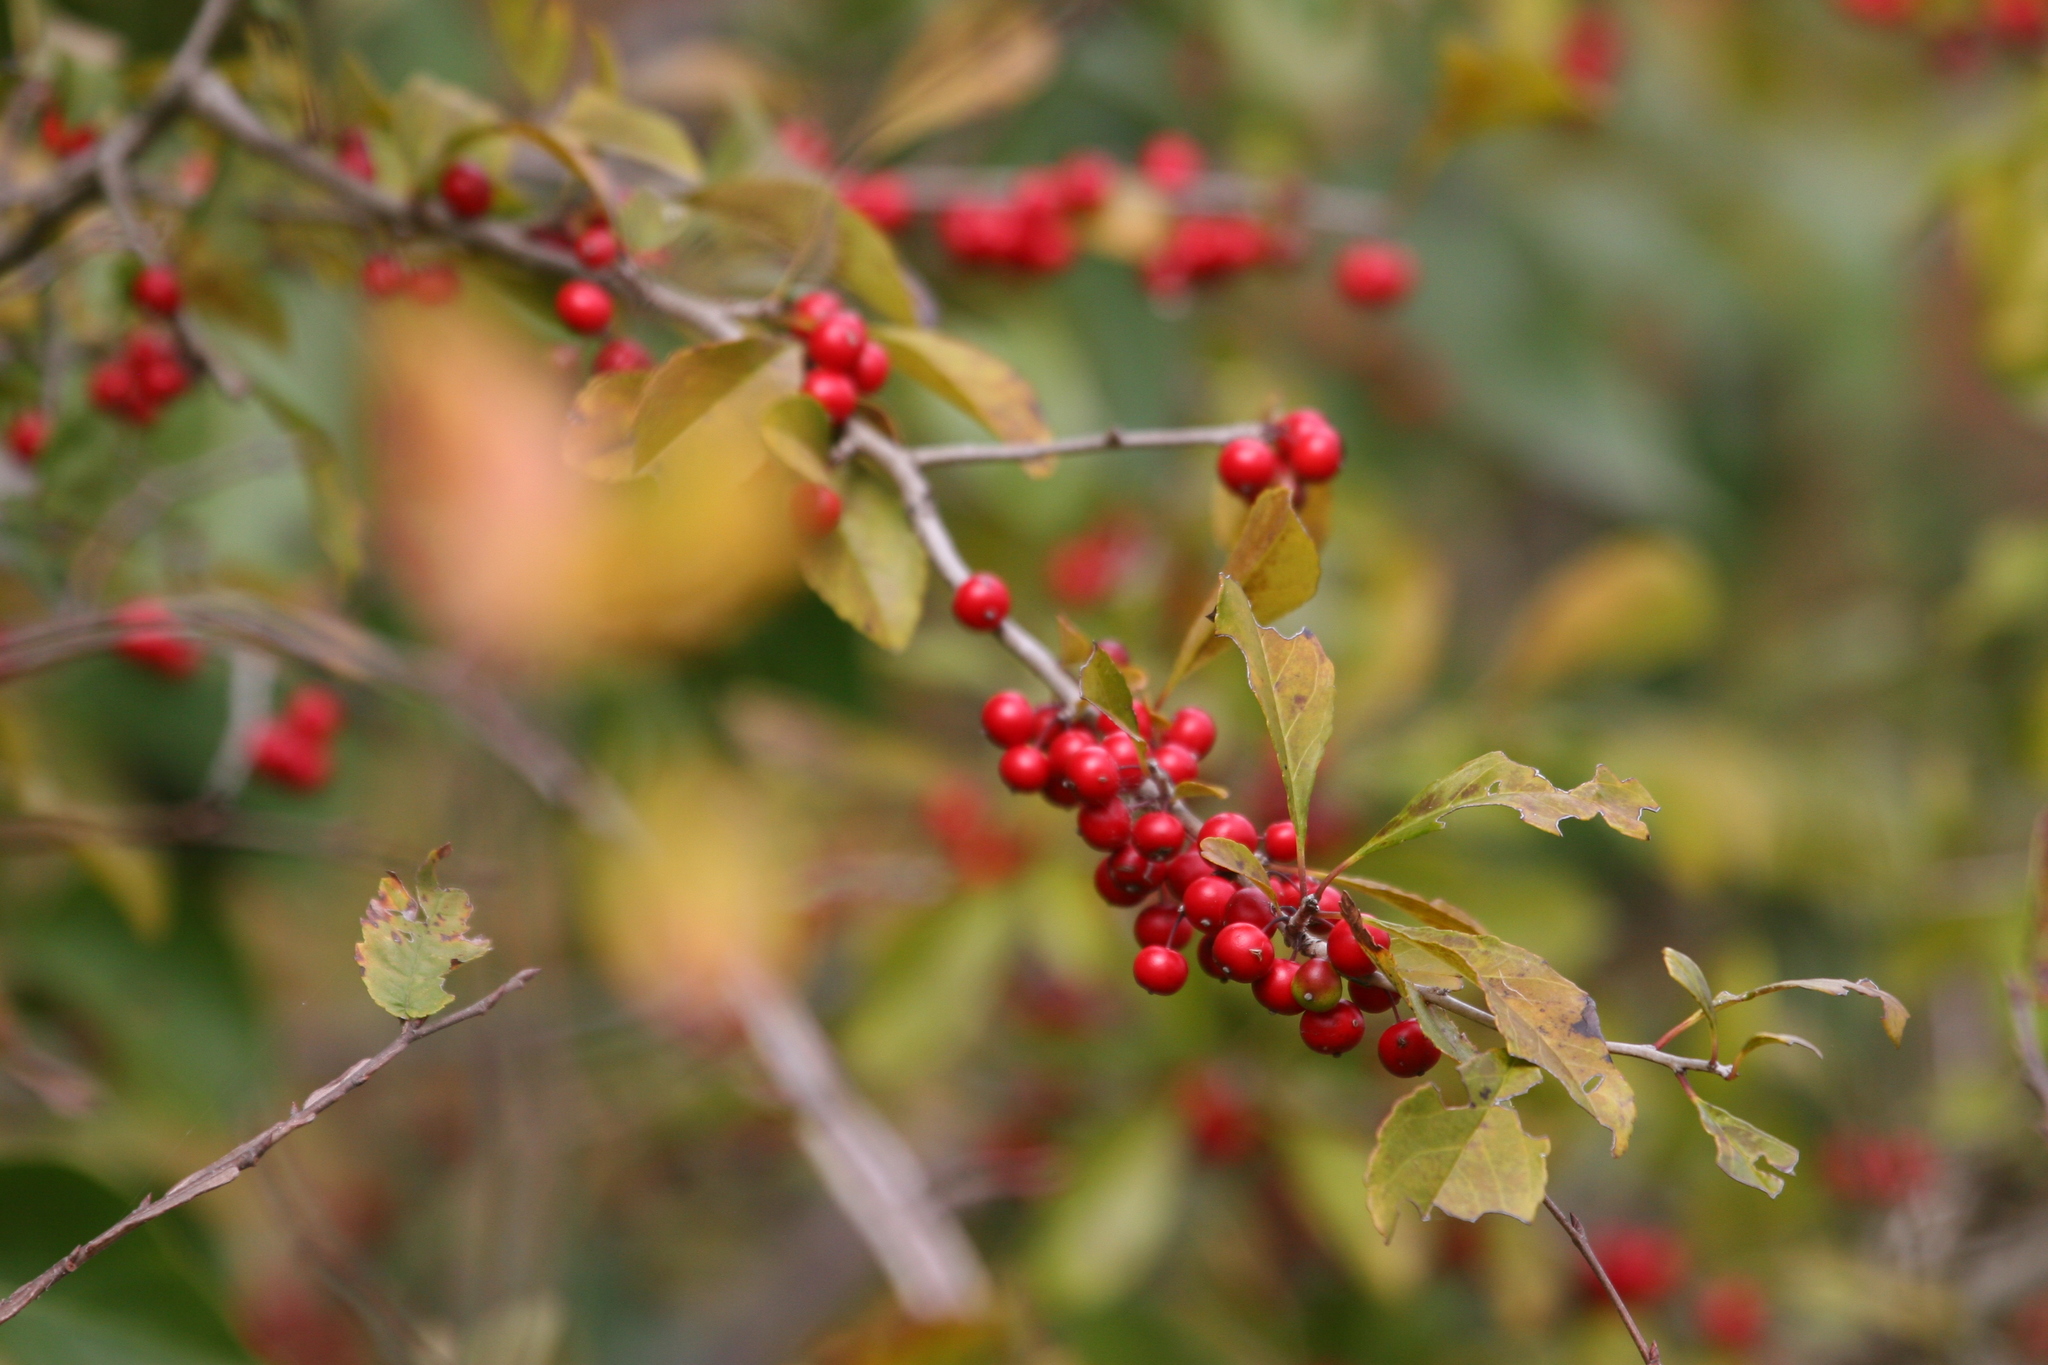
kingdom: Plantae
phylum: Tracheophyta
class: Magnoliopsida
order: Aquifoliales
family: Aquifoliaceae
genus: Ilex
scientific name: Ilex decidua
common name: Possum-haw
